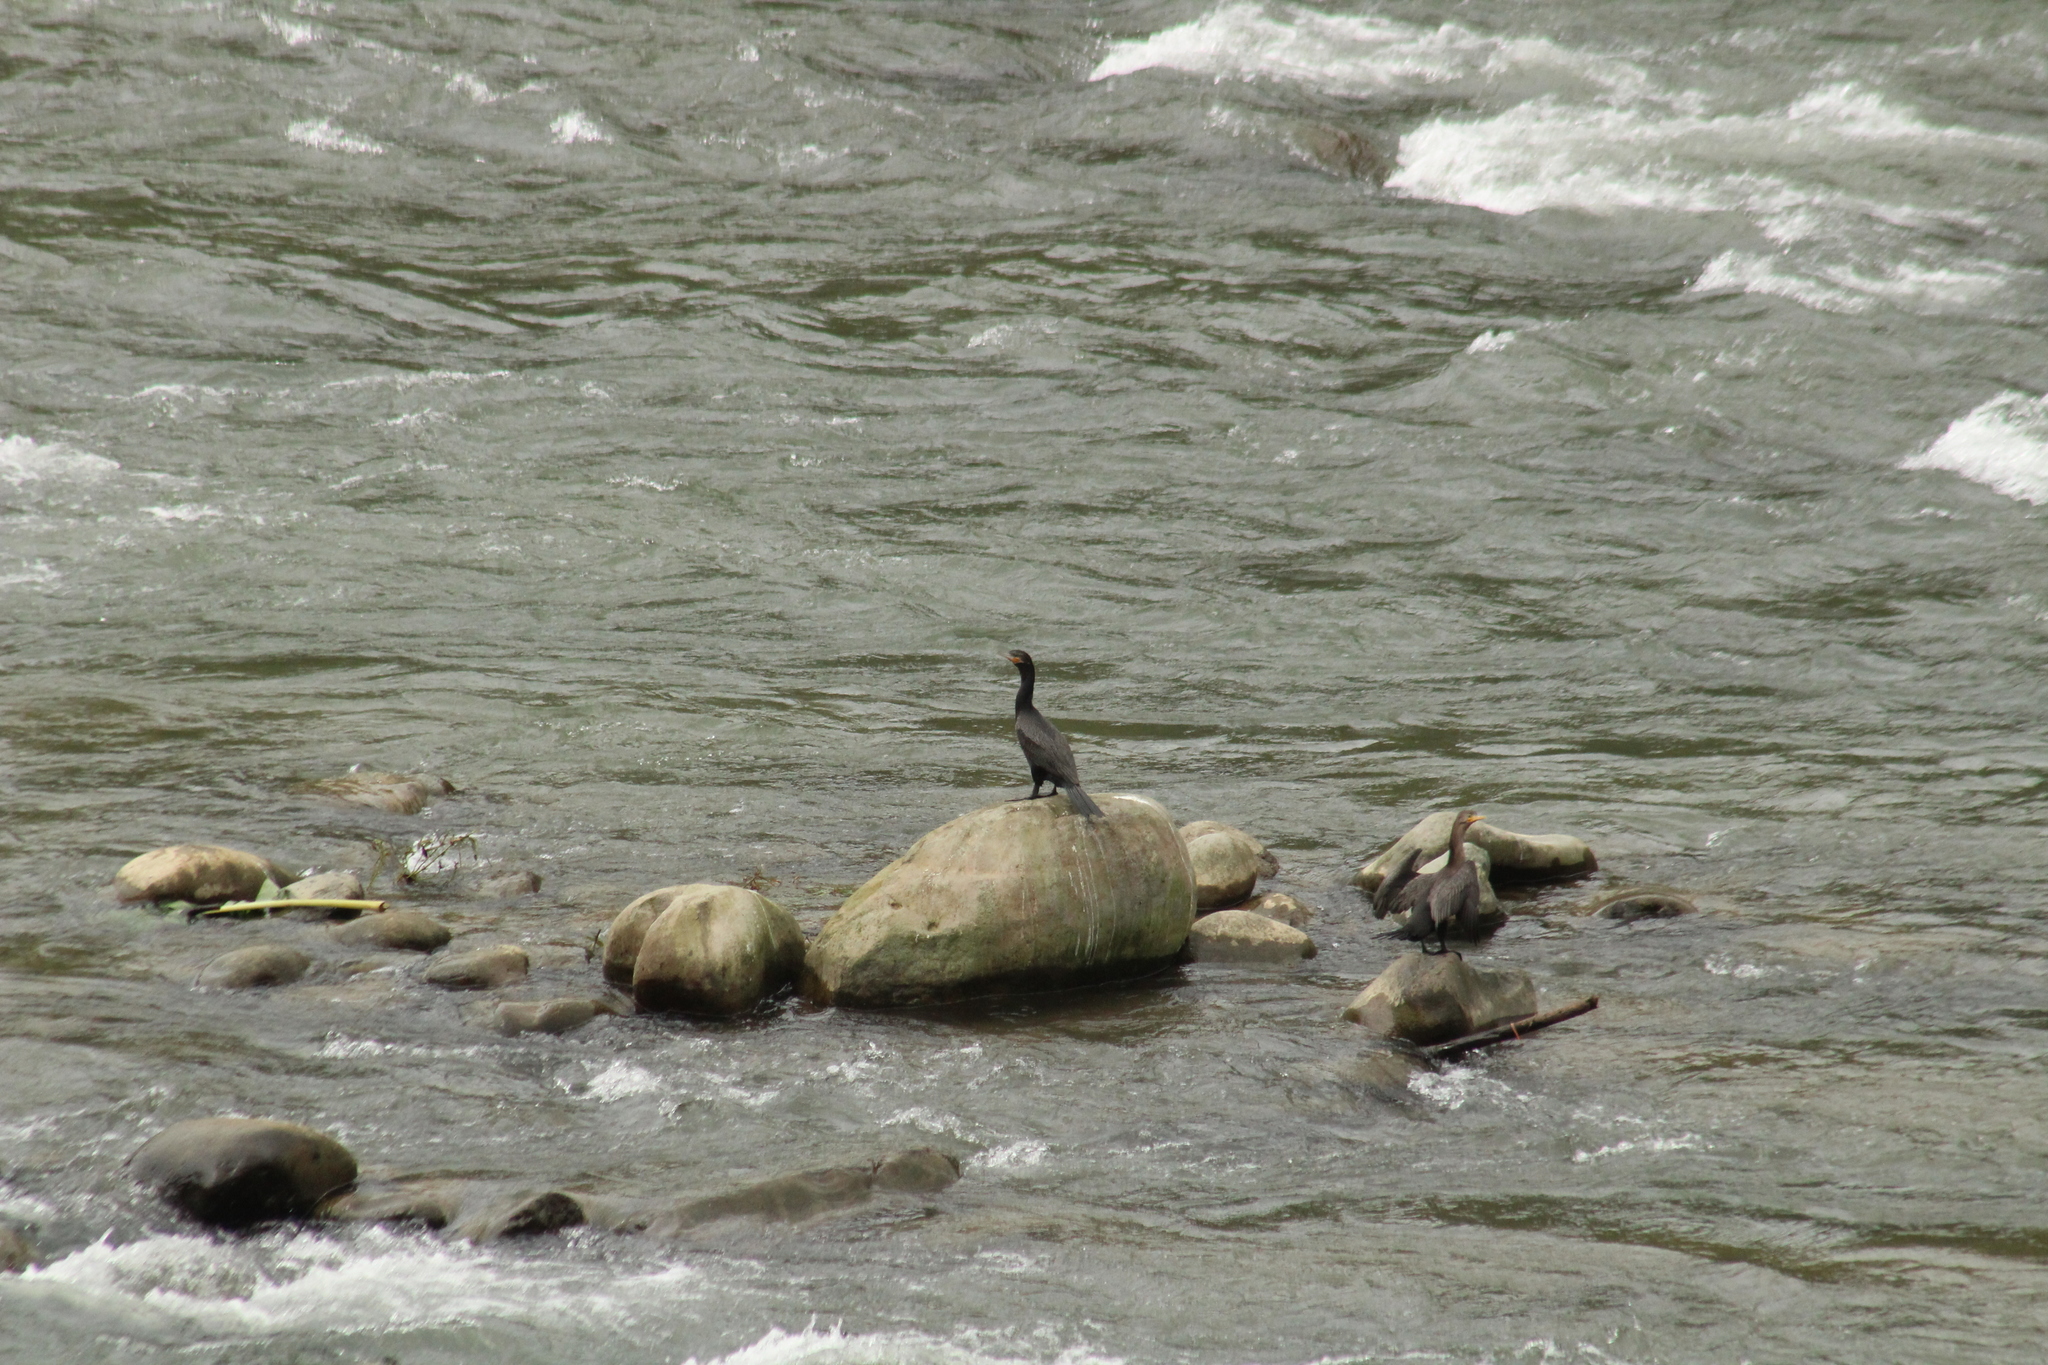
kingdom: Animalia
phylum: Chordata
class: Aves
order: Suliformes
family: Phalacrocoracidae
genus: Phalacrocorax
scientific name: Phalacrocorax brasilianus
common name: Neotropic cormorant
